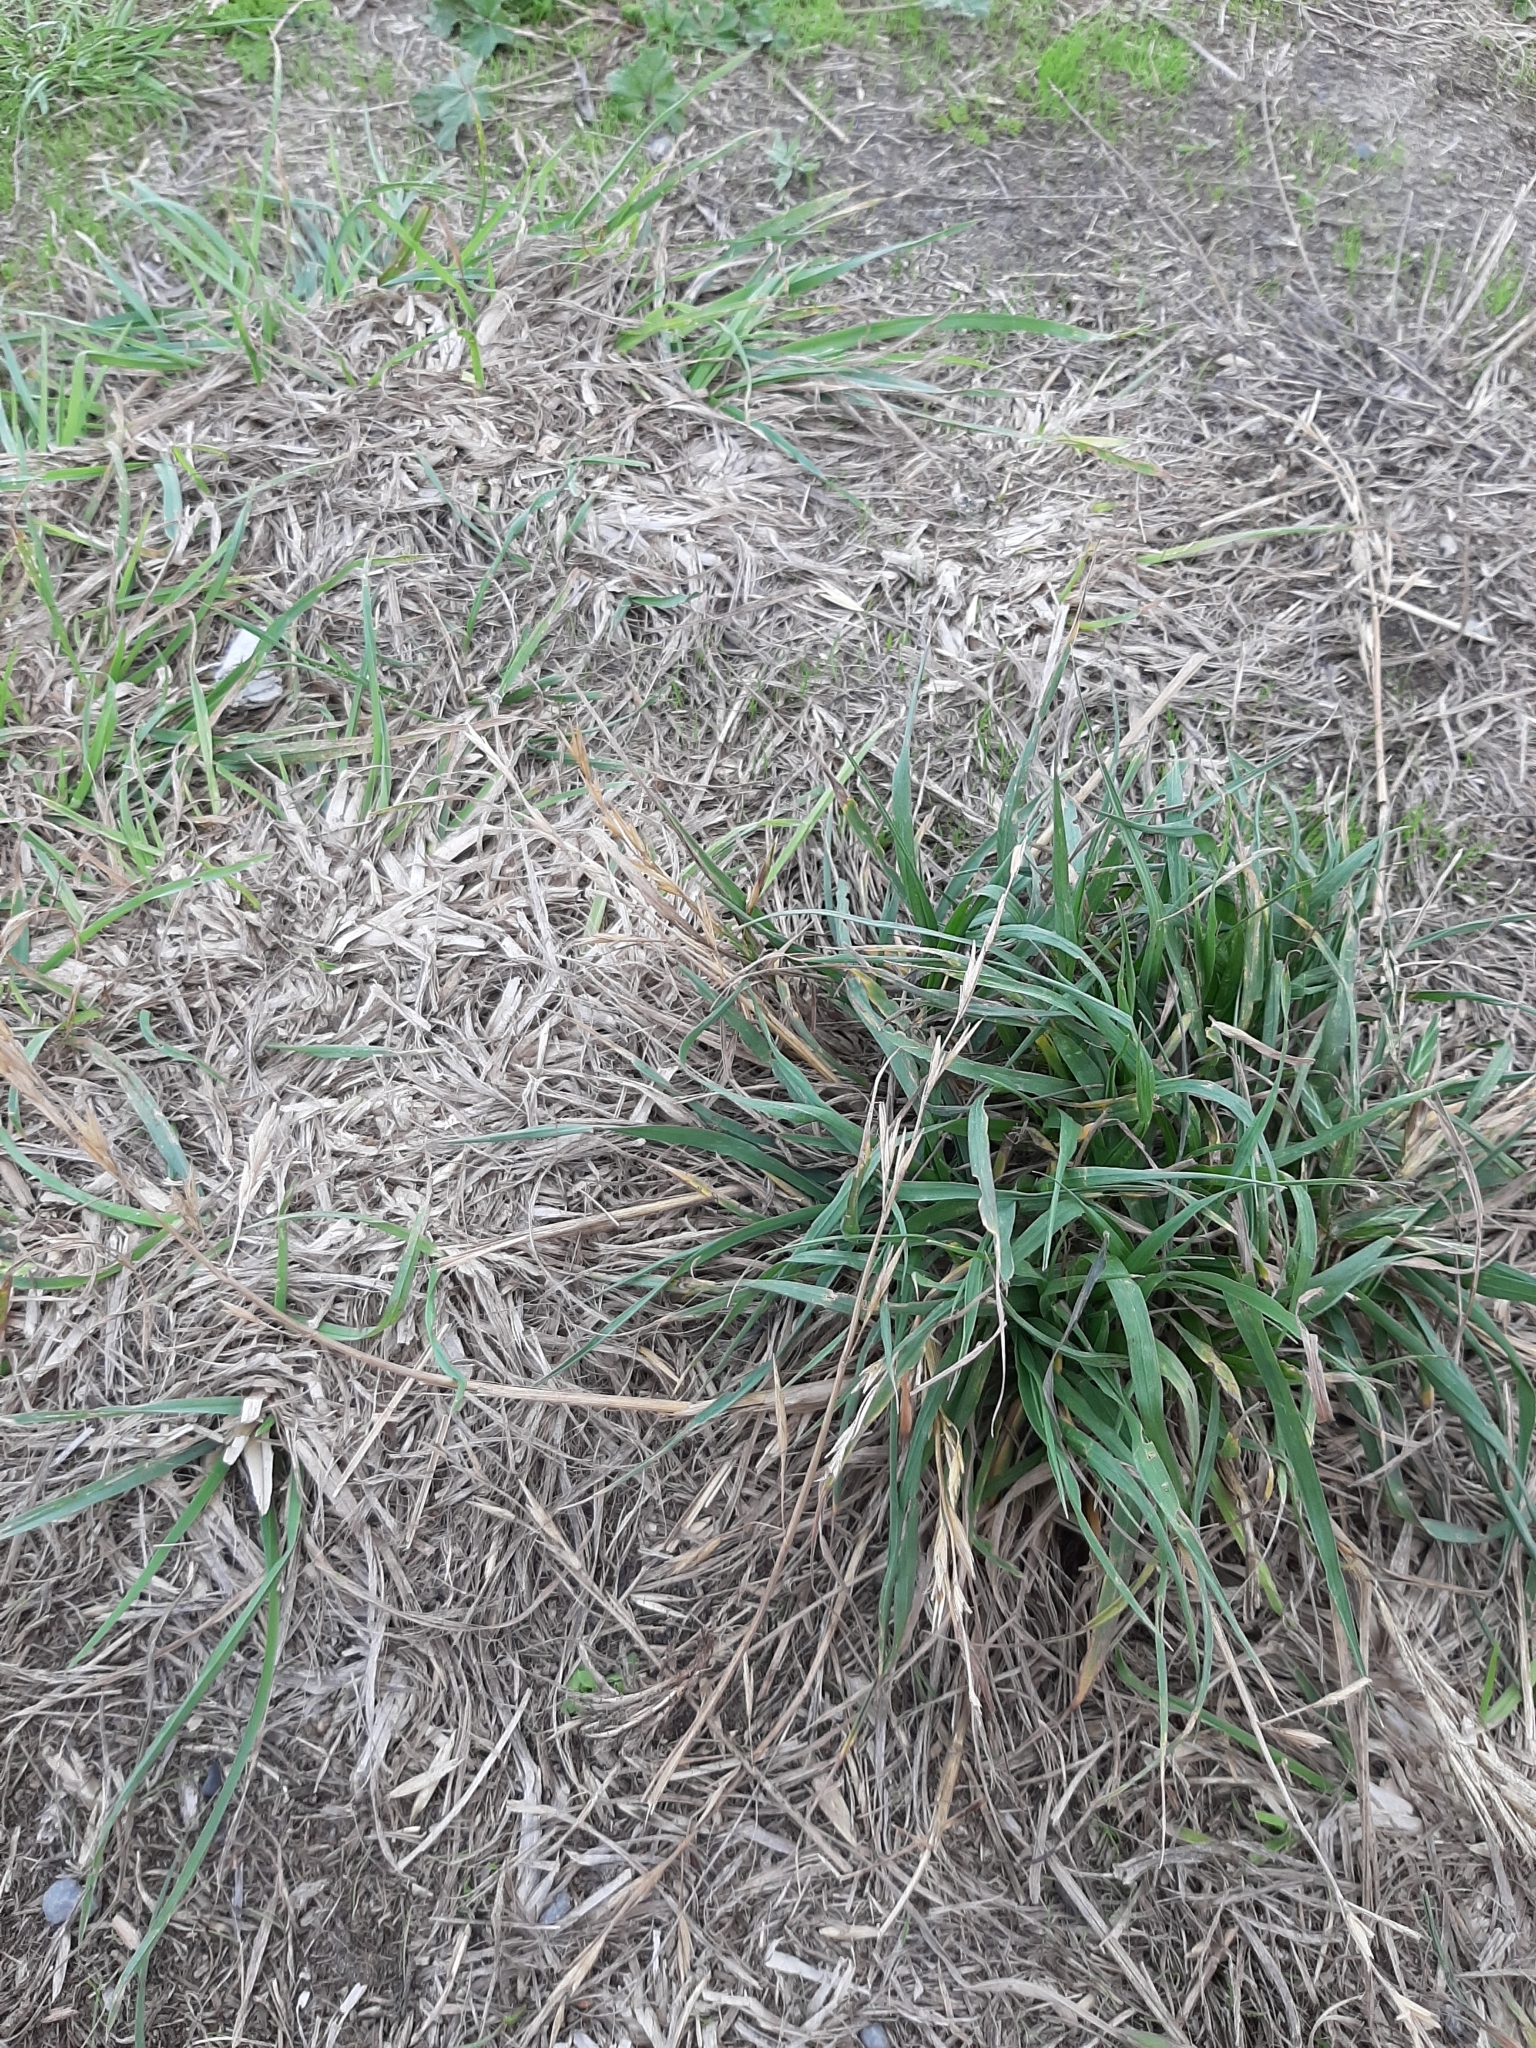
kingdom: Plantae
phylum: Tracheophyta
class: Liliopsida
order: Poales
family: Poaceae
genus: Bromus
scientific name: Bromus catharticus
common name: Rescuegrass
